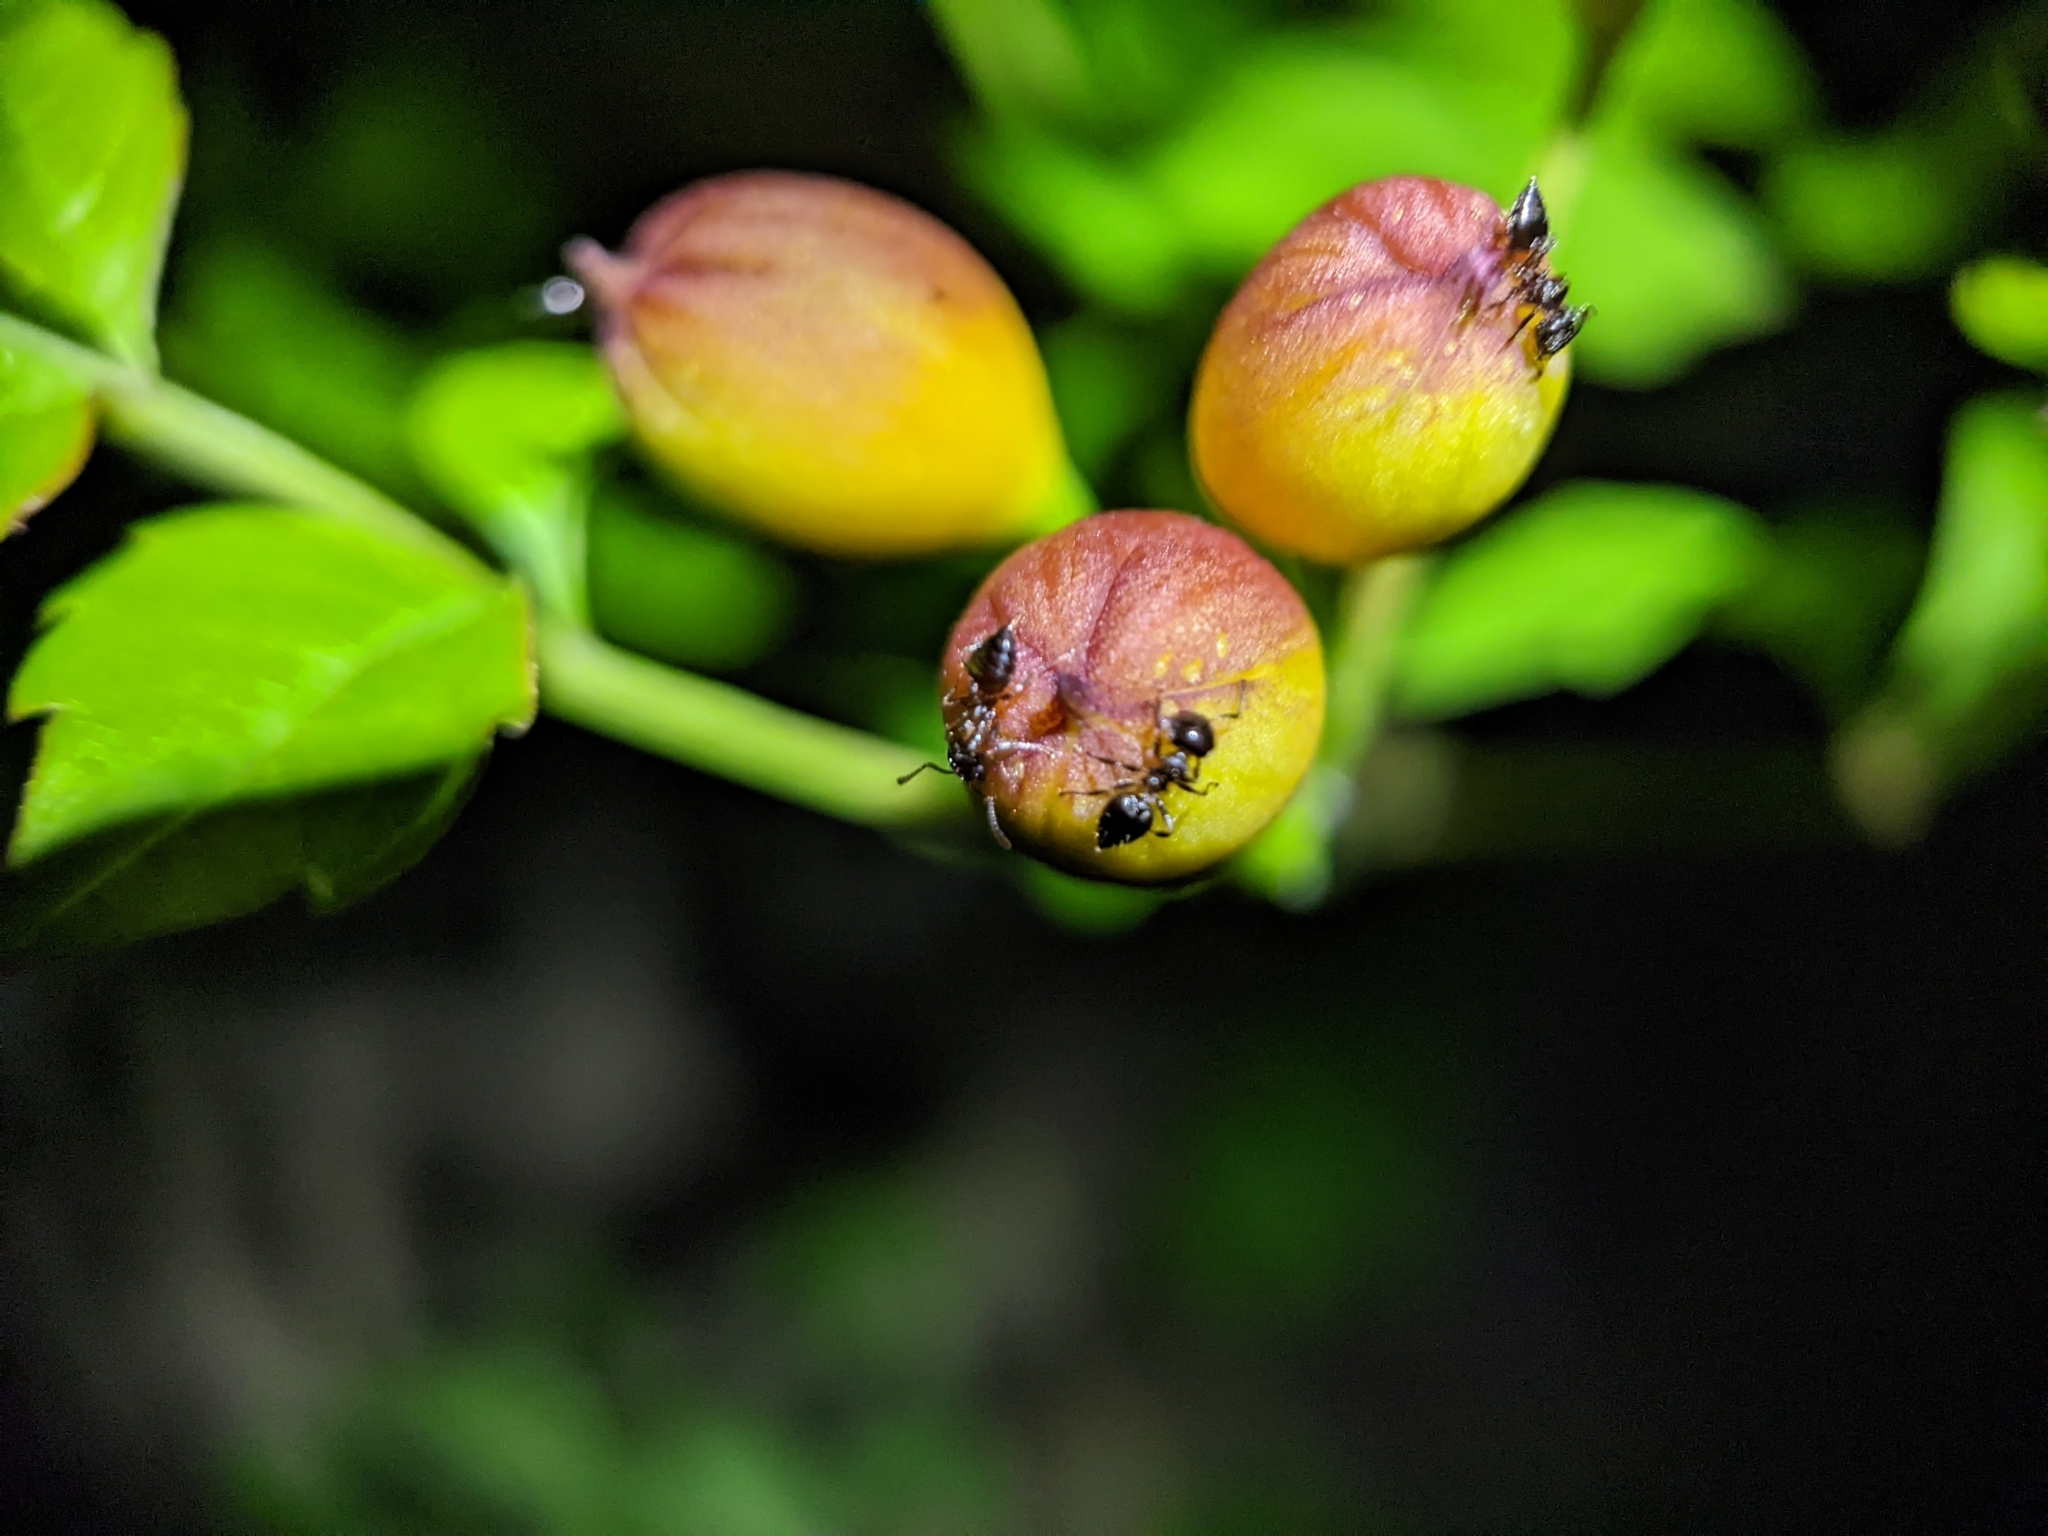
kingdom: Plantae
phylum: Tracheophyta
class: Magnoliopsida
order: Lamiales
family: Bignoniaceae
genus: Campsis
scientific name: Campsis radicans
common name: Trumpet-creeper
